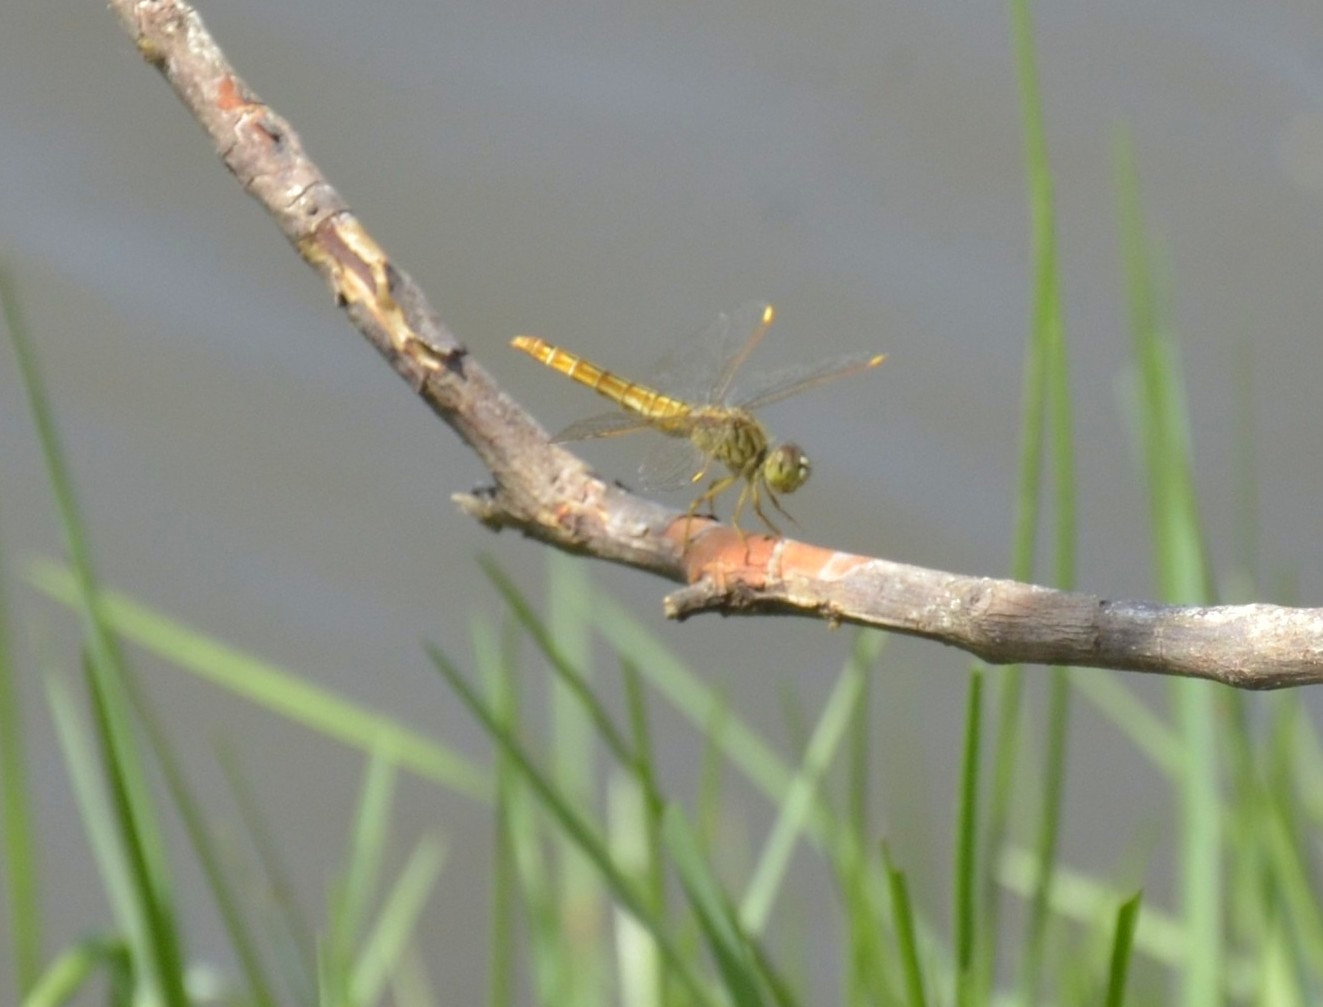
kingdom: Animalia
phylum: Arthropoda
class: Insecta
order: Odonata
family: Libellulidae
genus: Brachythemis
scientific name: Brachythemis contaminata
